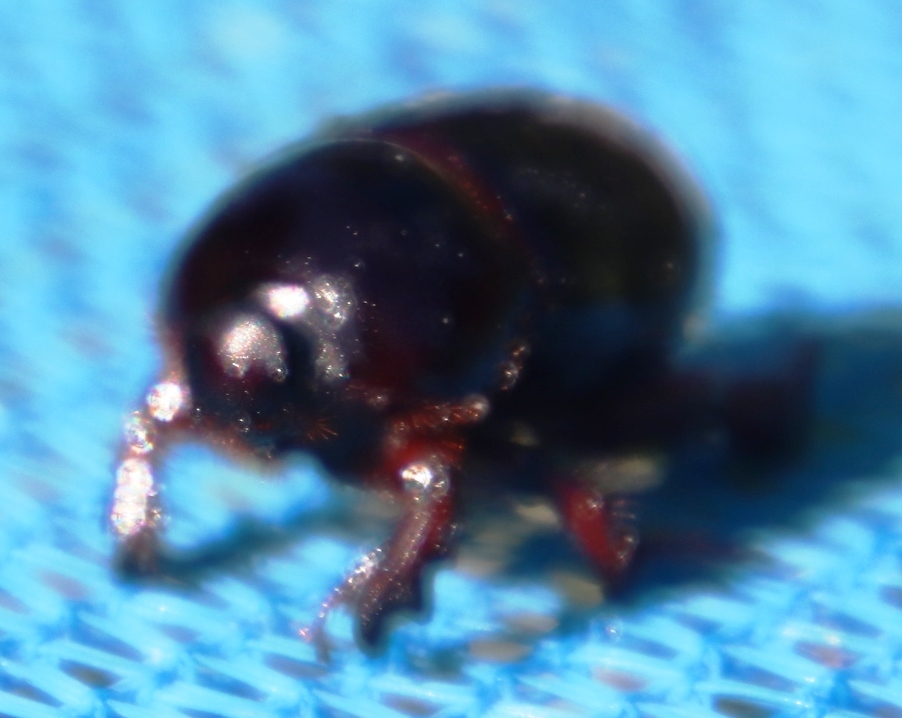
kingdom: Animalia
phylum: Arthropoda
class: Insecta
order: Coleoptera
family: Scarabaeidae
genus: Temnorhynchus
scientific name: Temnorhynchus retusus
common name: Plate-faced beetle
